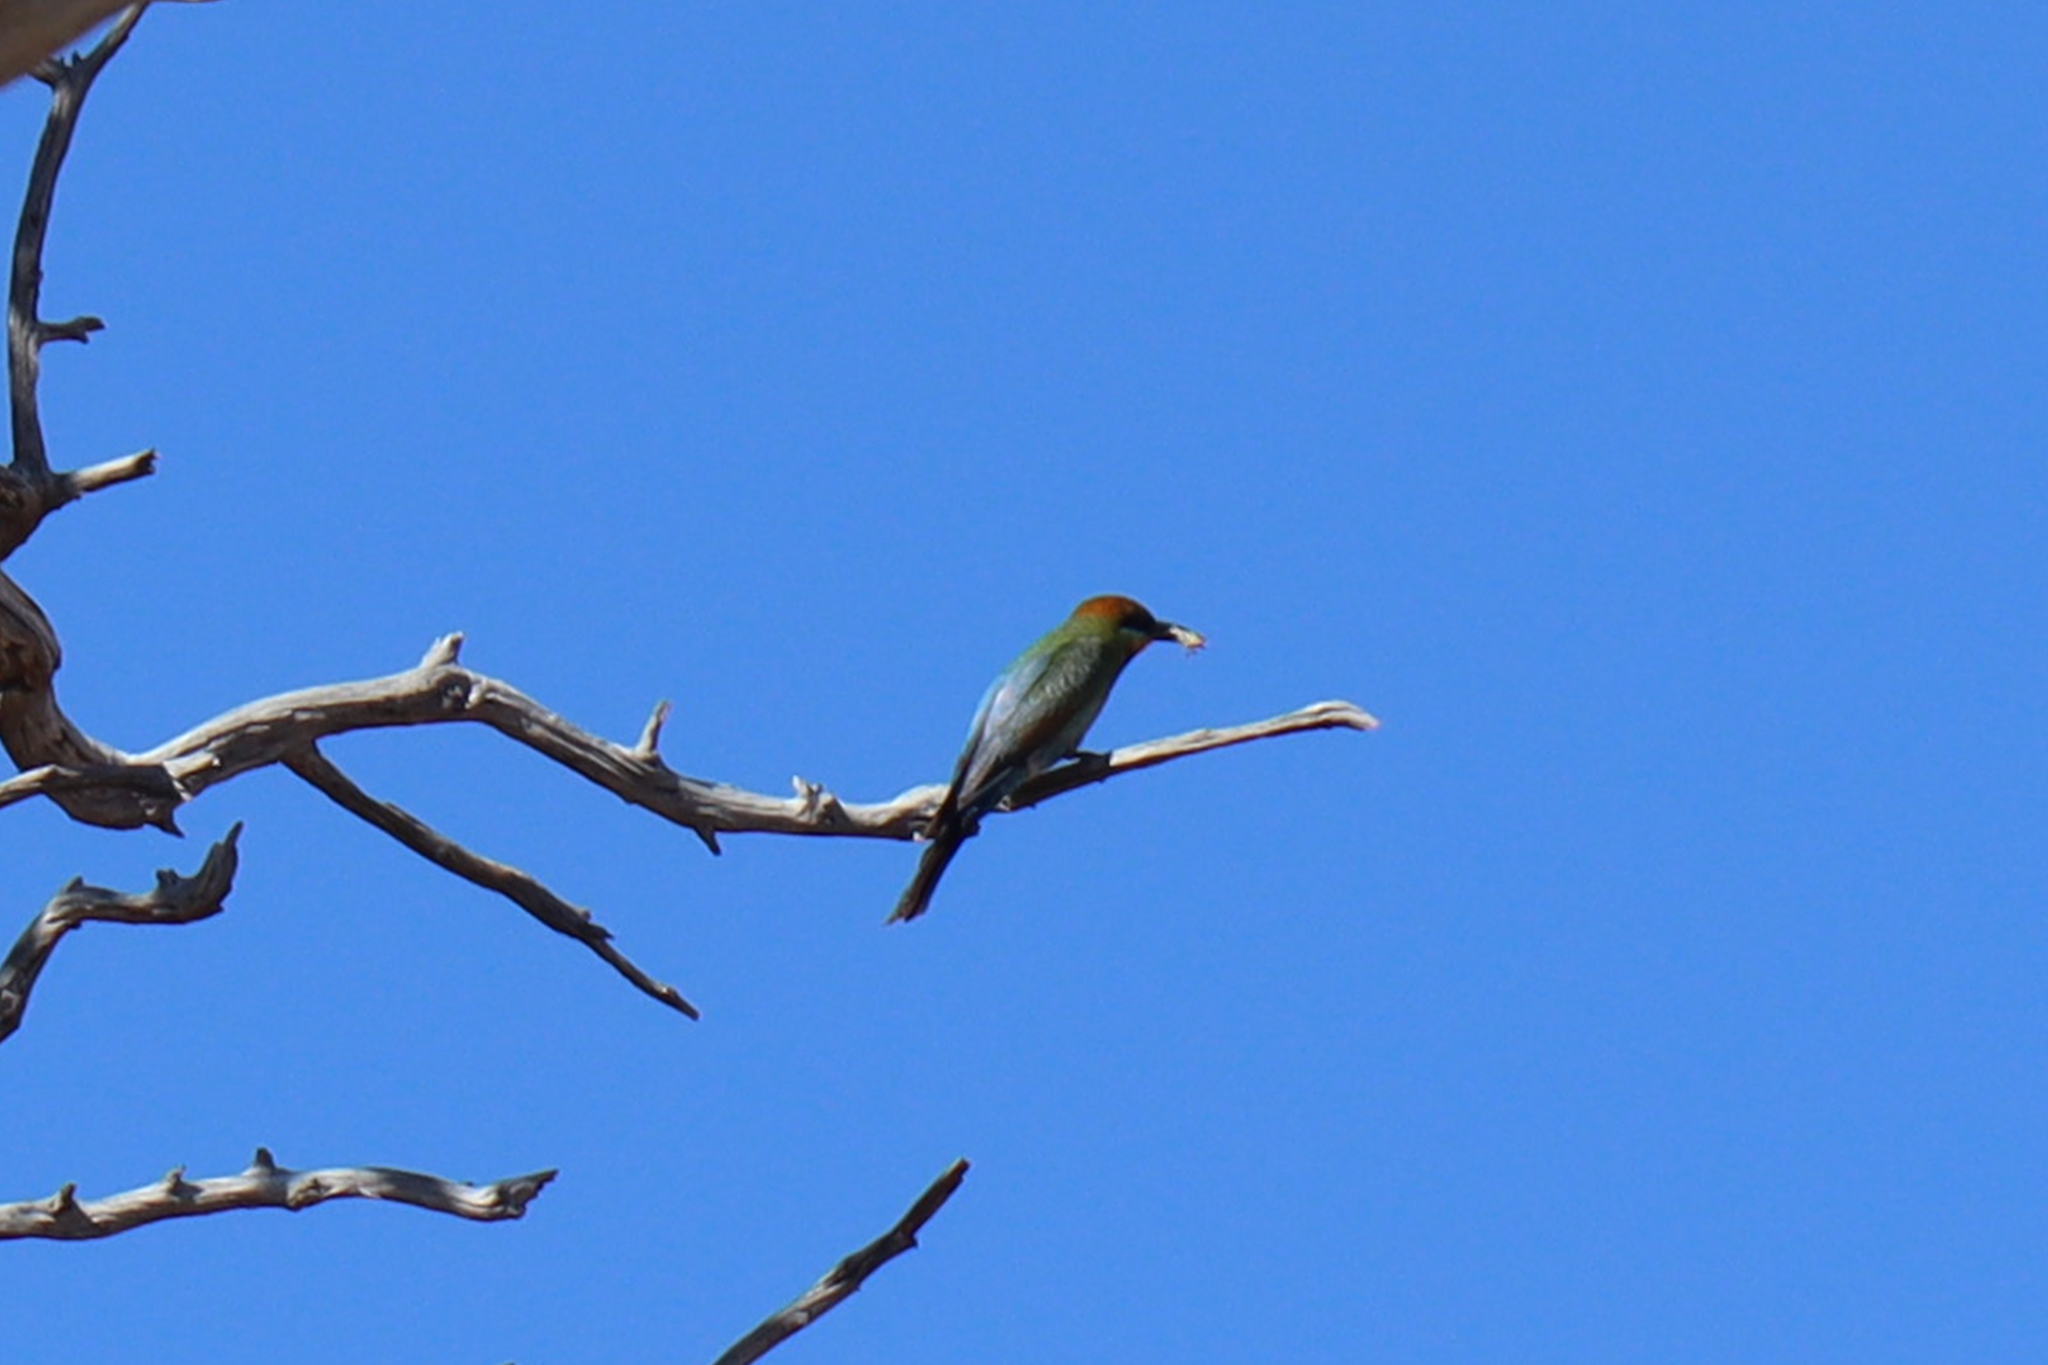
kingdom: Animalia
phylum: Chordata
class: Aves
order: Coraciiformes
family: Meropidae
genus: Merops
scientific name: Merops ornatus
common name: Rainbow bee-eater
